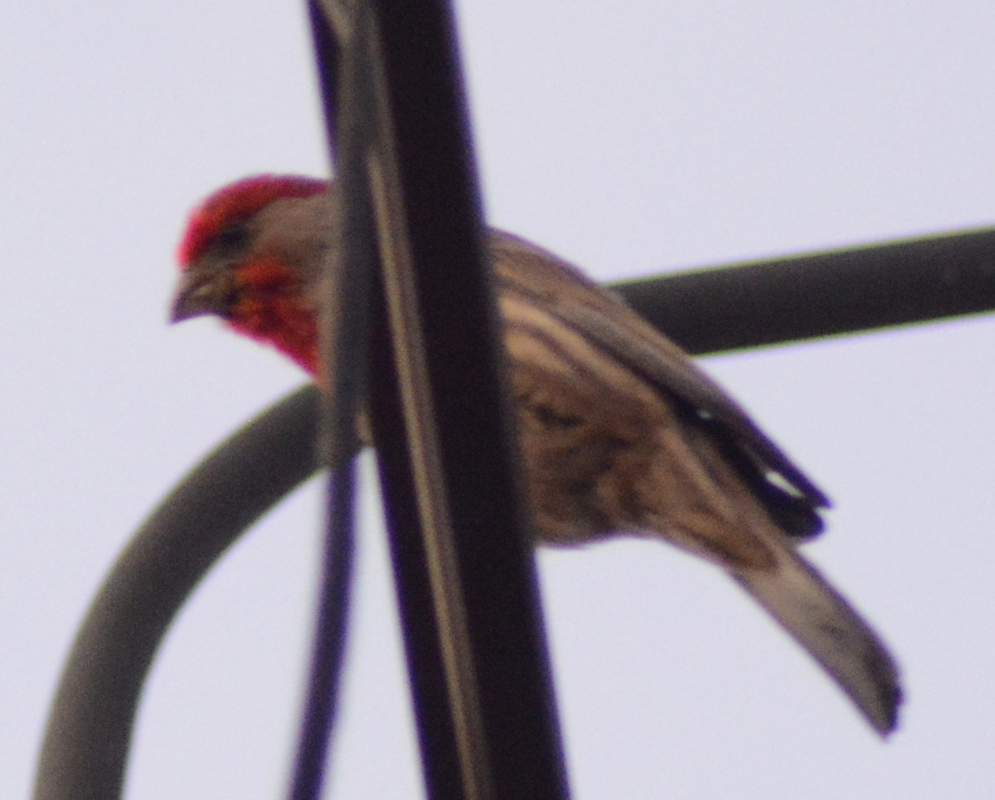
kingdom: Animalia
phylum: Chordata
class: Aves
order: Passeriformes
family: Fringillidae
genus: Haemorhous
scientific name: Haemorhous mexicanus
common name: House finch
